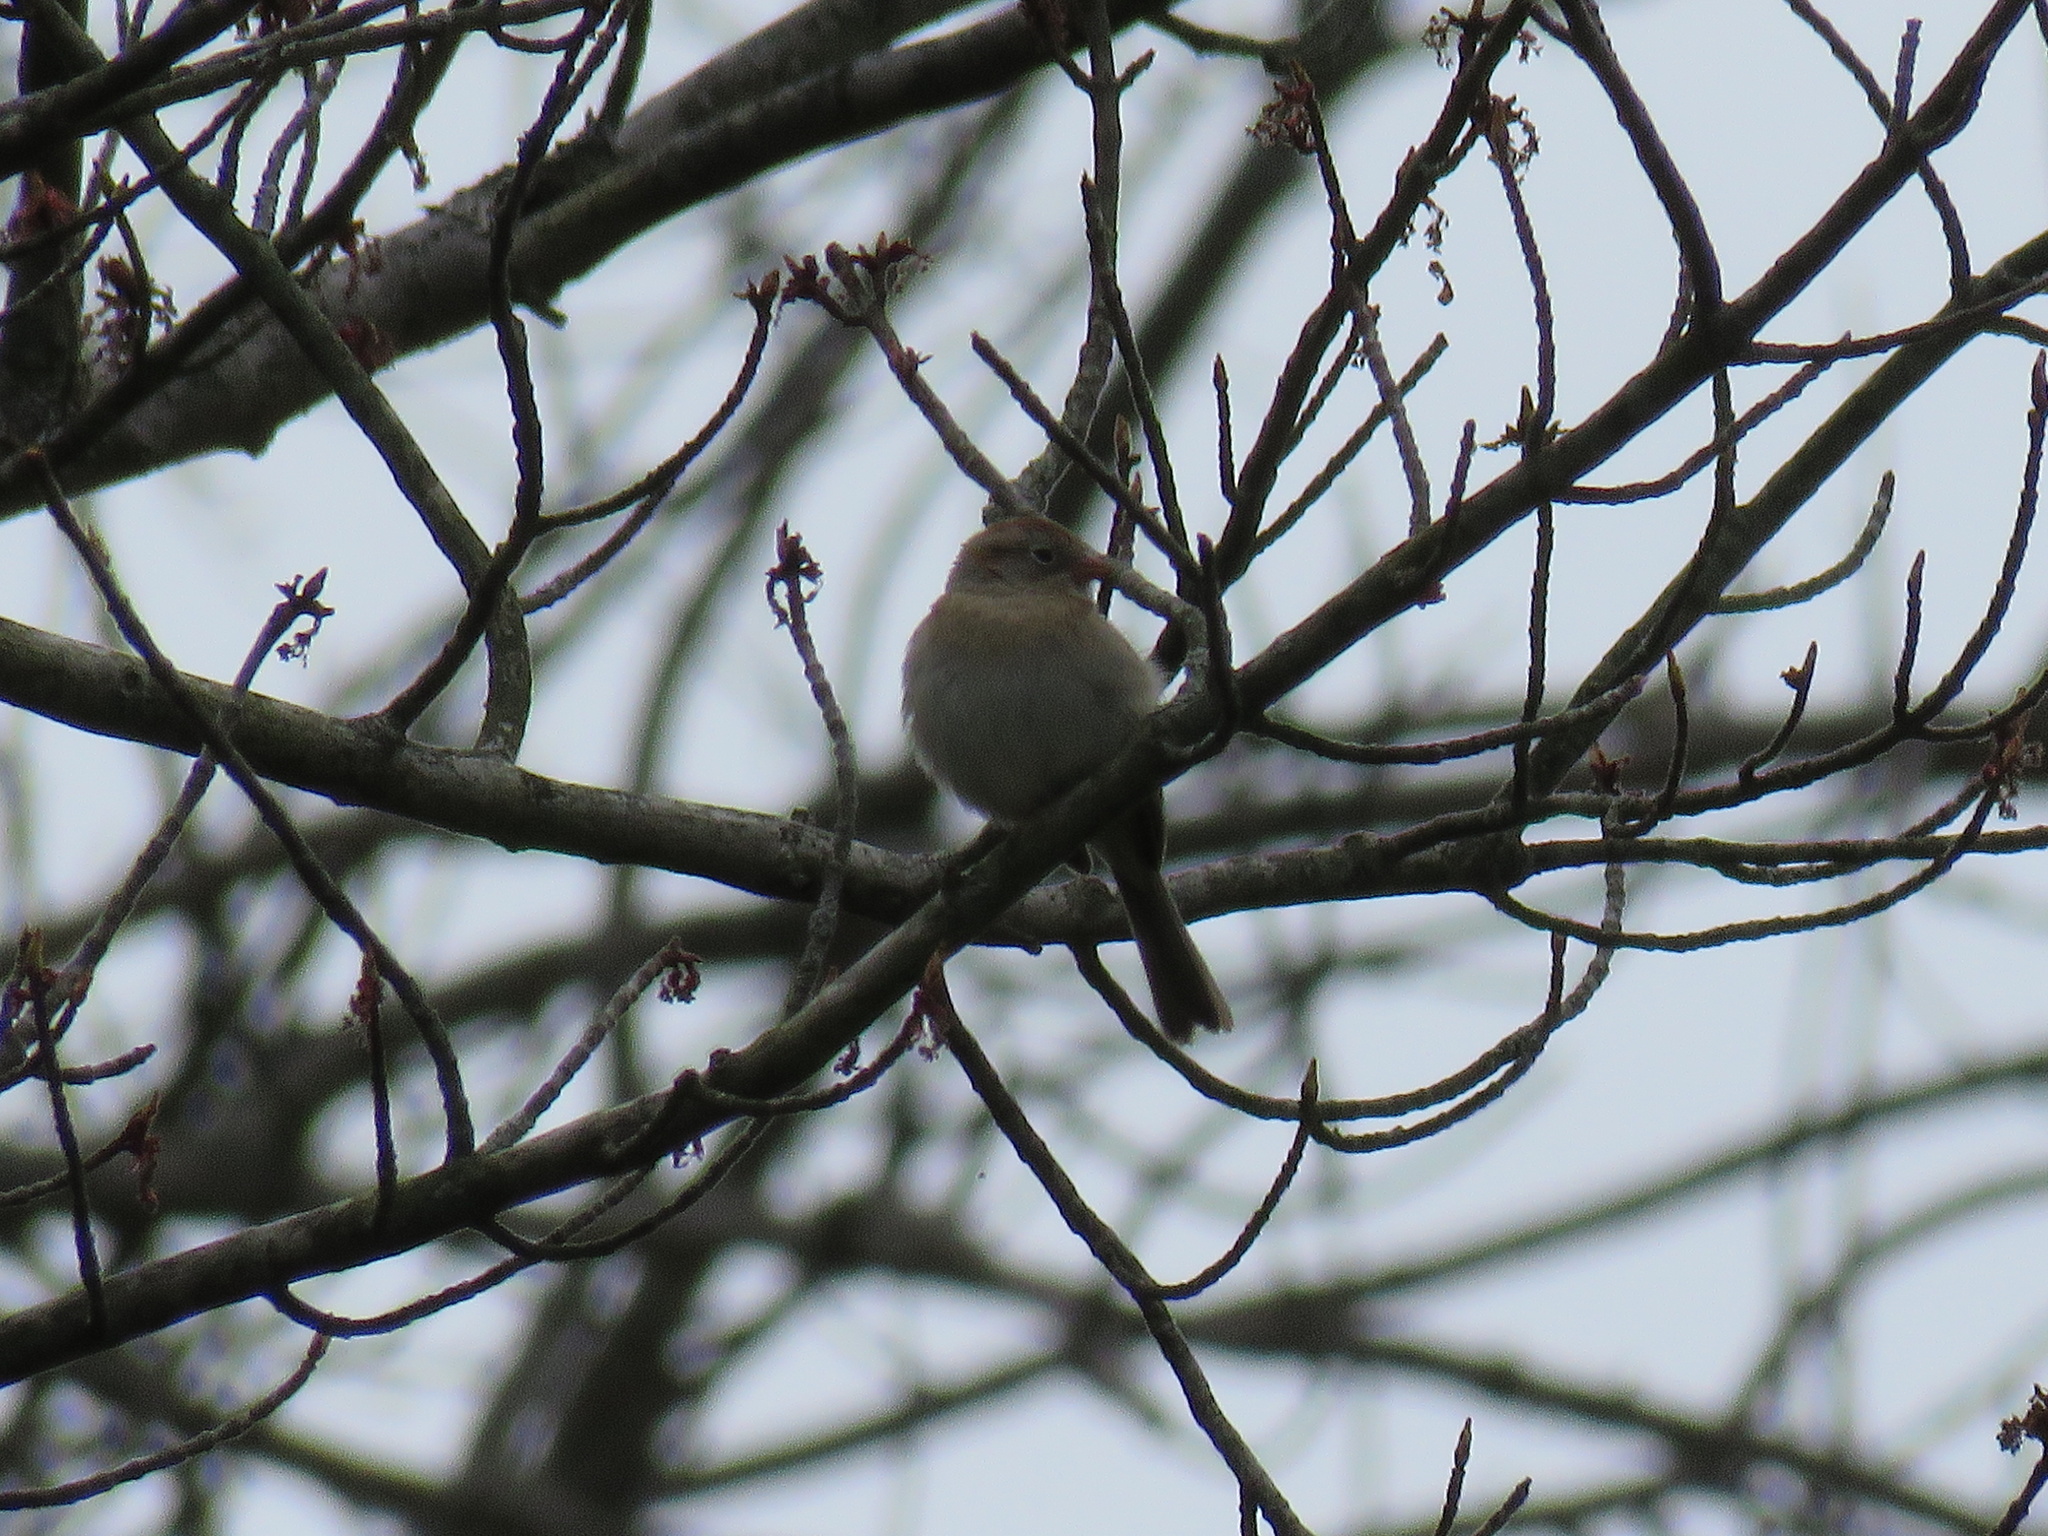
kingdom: Animalia
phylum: Chordata
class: Aves
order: Passeriformes
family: Passerellidae
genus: Spizella
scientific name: Spizella pusilla
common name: Field sparrow
